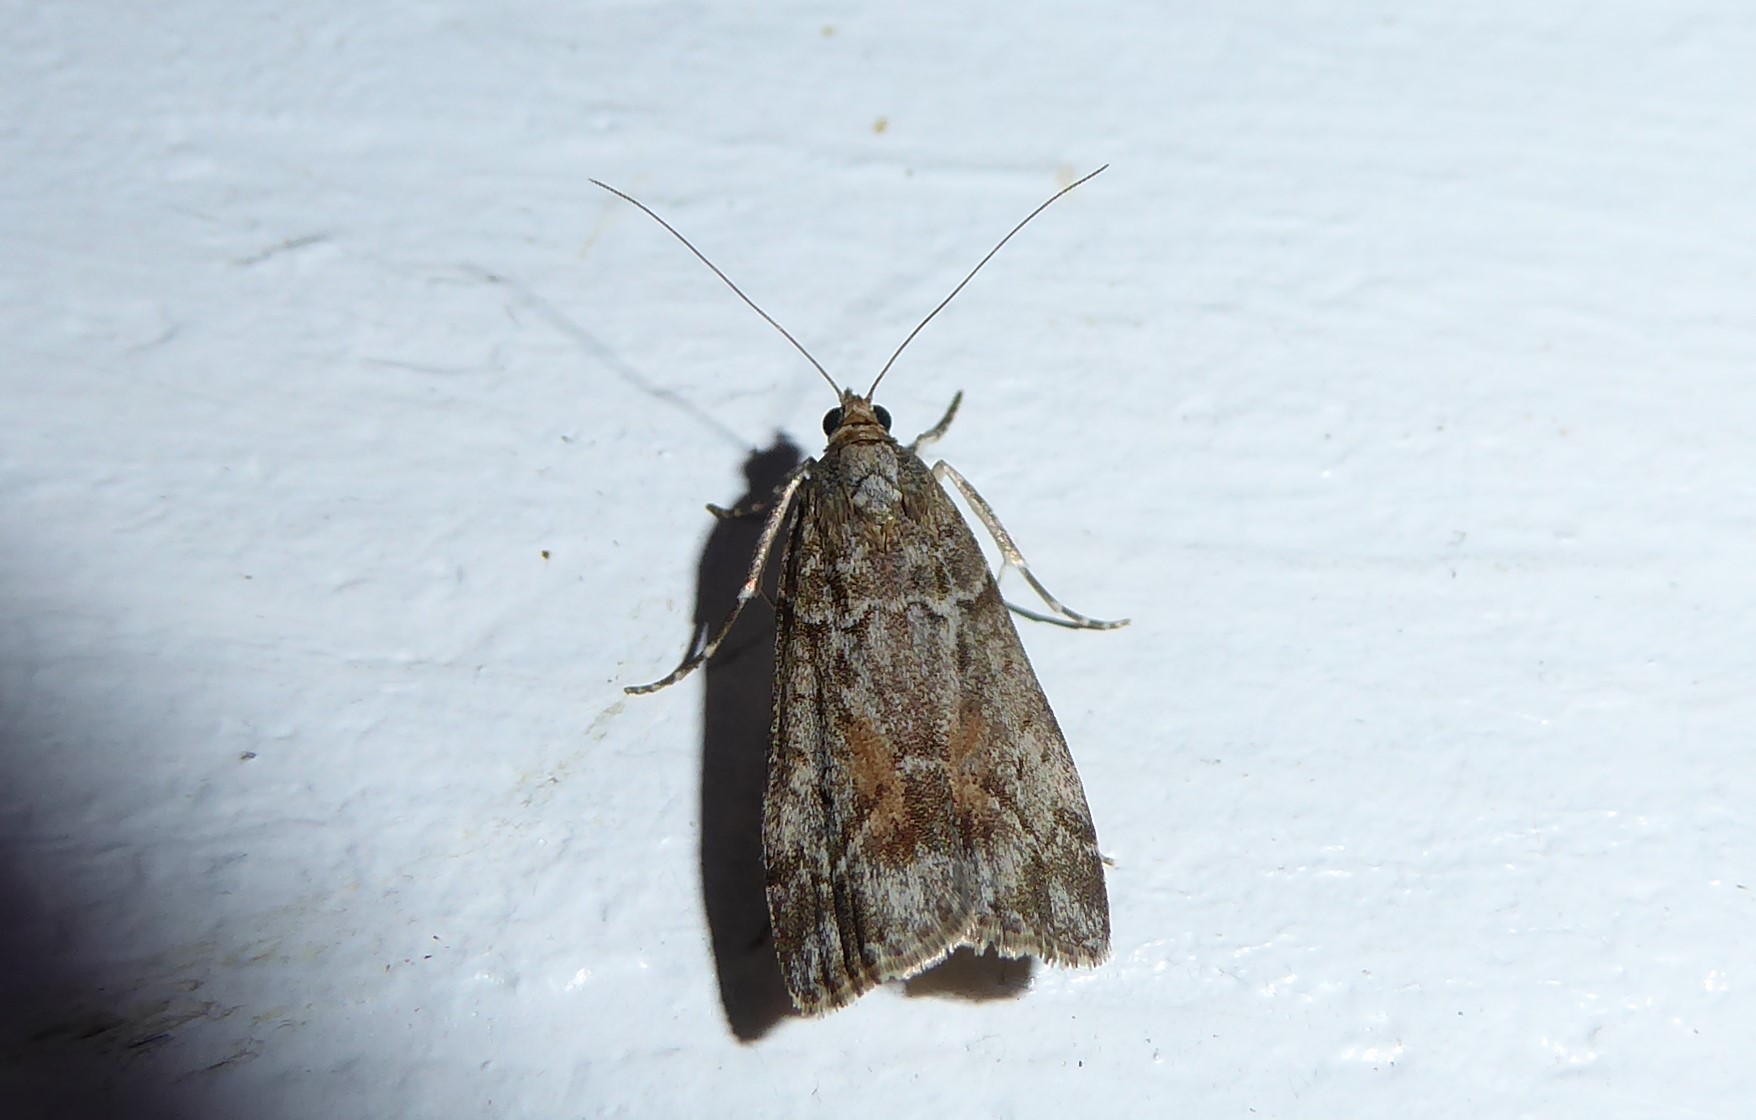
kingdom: Animalia
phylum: Arthropoda
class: Insecta
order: Lepidoptera
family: Crambidae
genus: Eudonia
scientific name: Eudonia submarginalis
